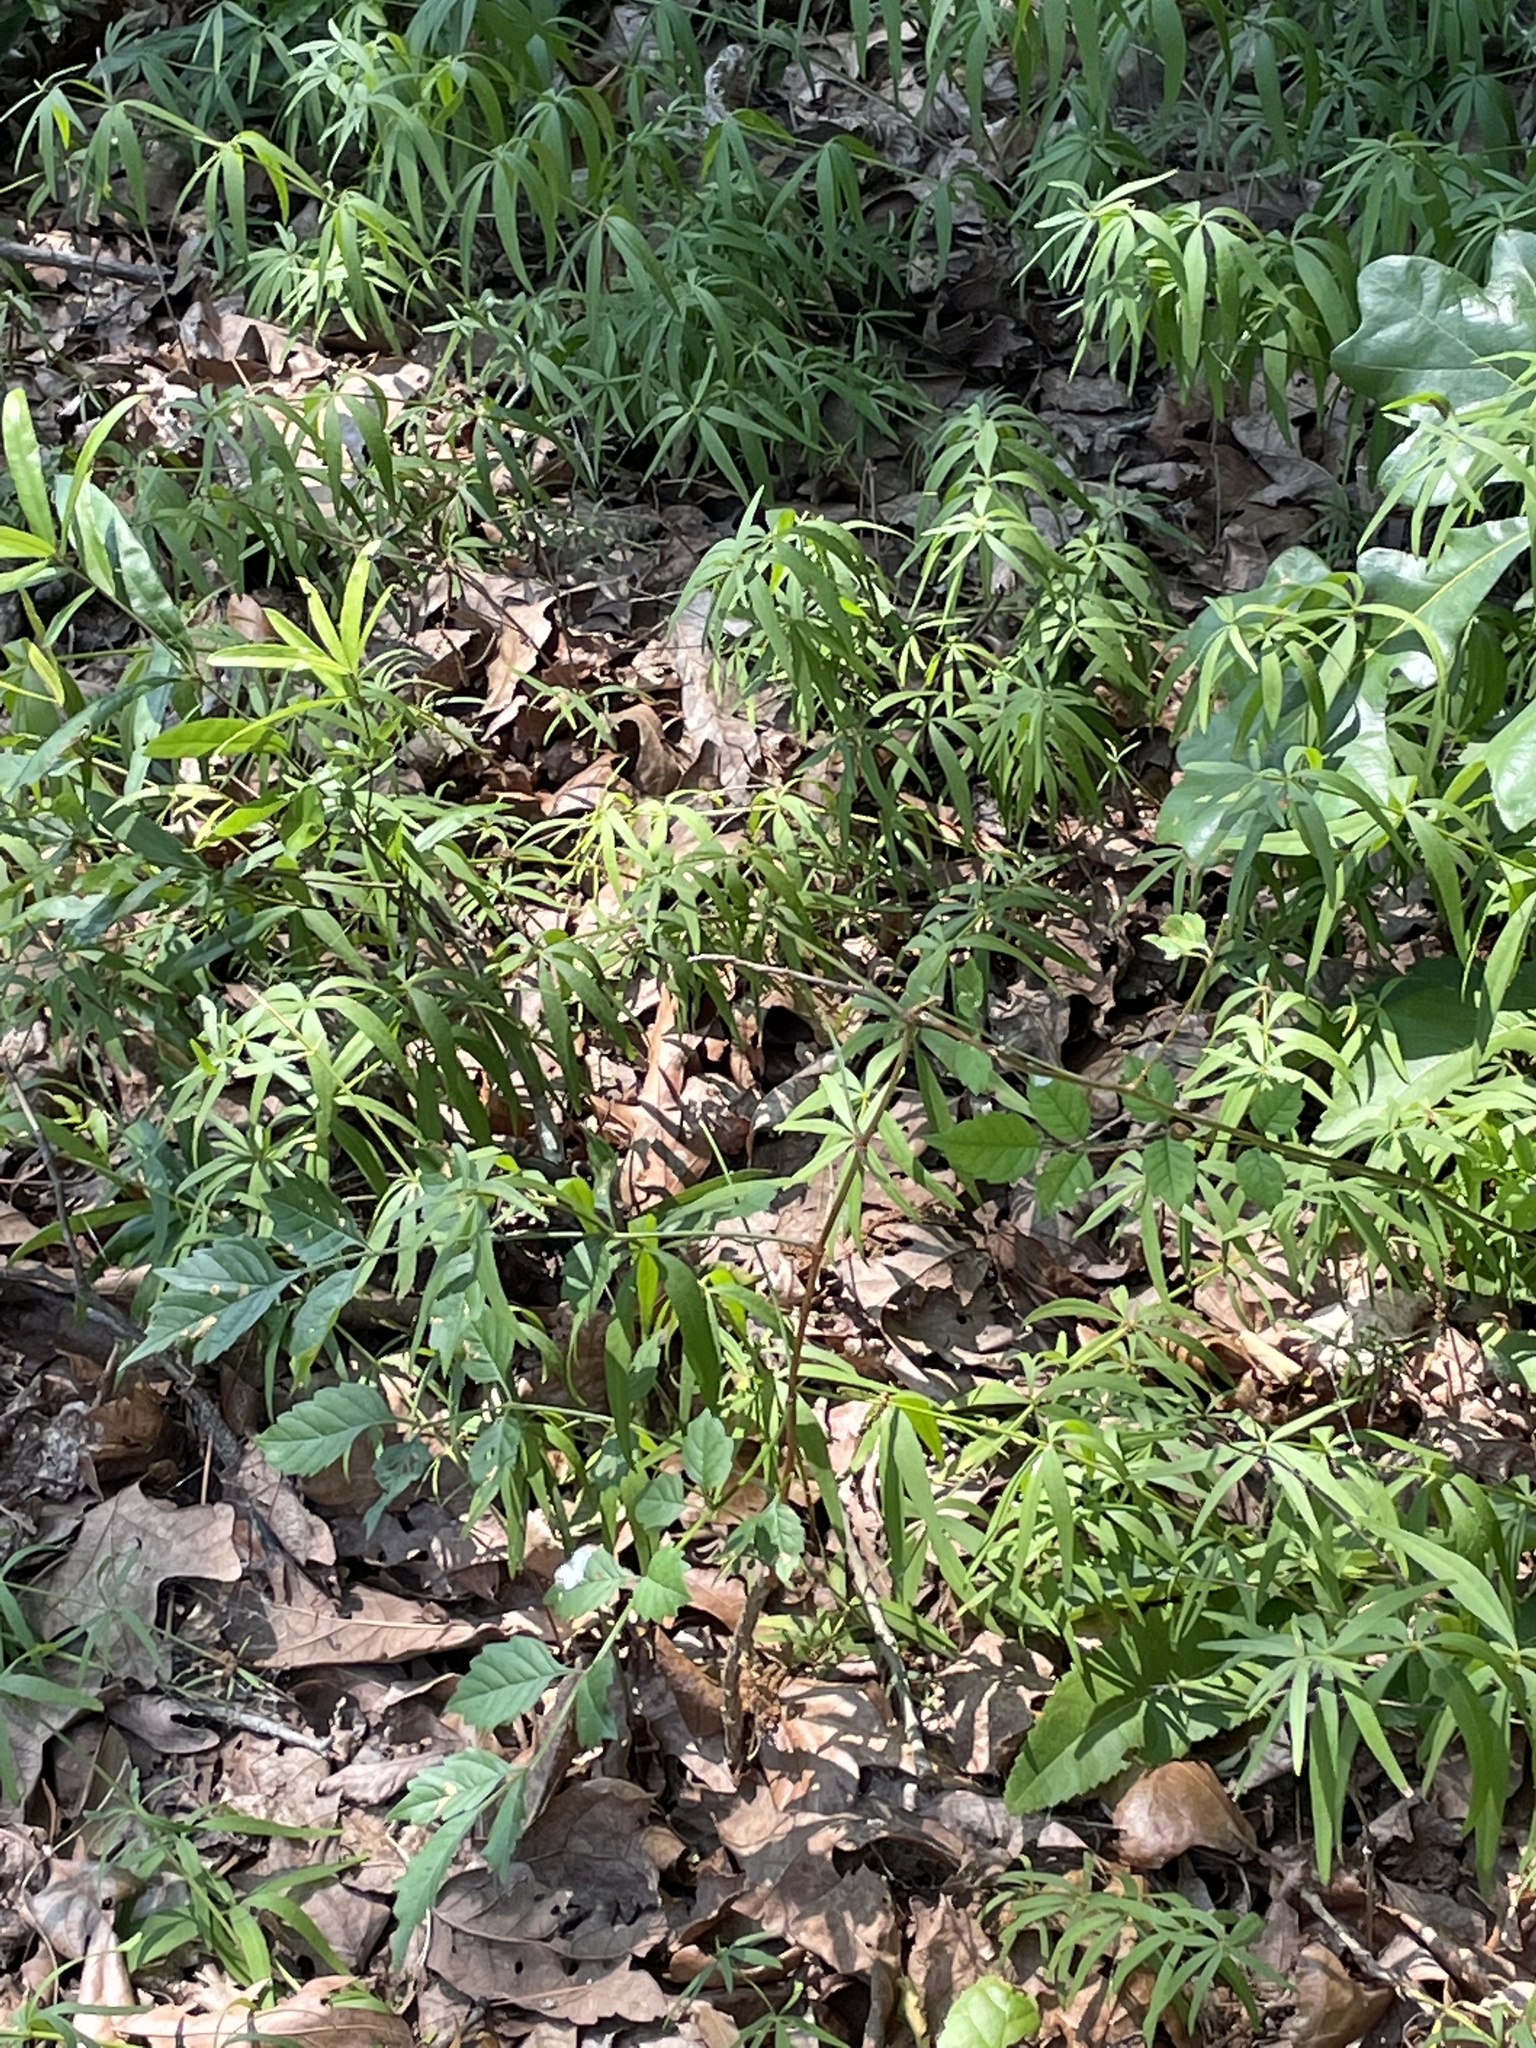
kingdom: Plantae
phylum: Tracheophyta
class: Magnoliopsida
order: Asterales
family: Asteraceae
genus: Coreopsis
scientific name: Coreopsis major
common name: Forest tickseed
